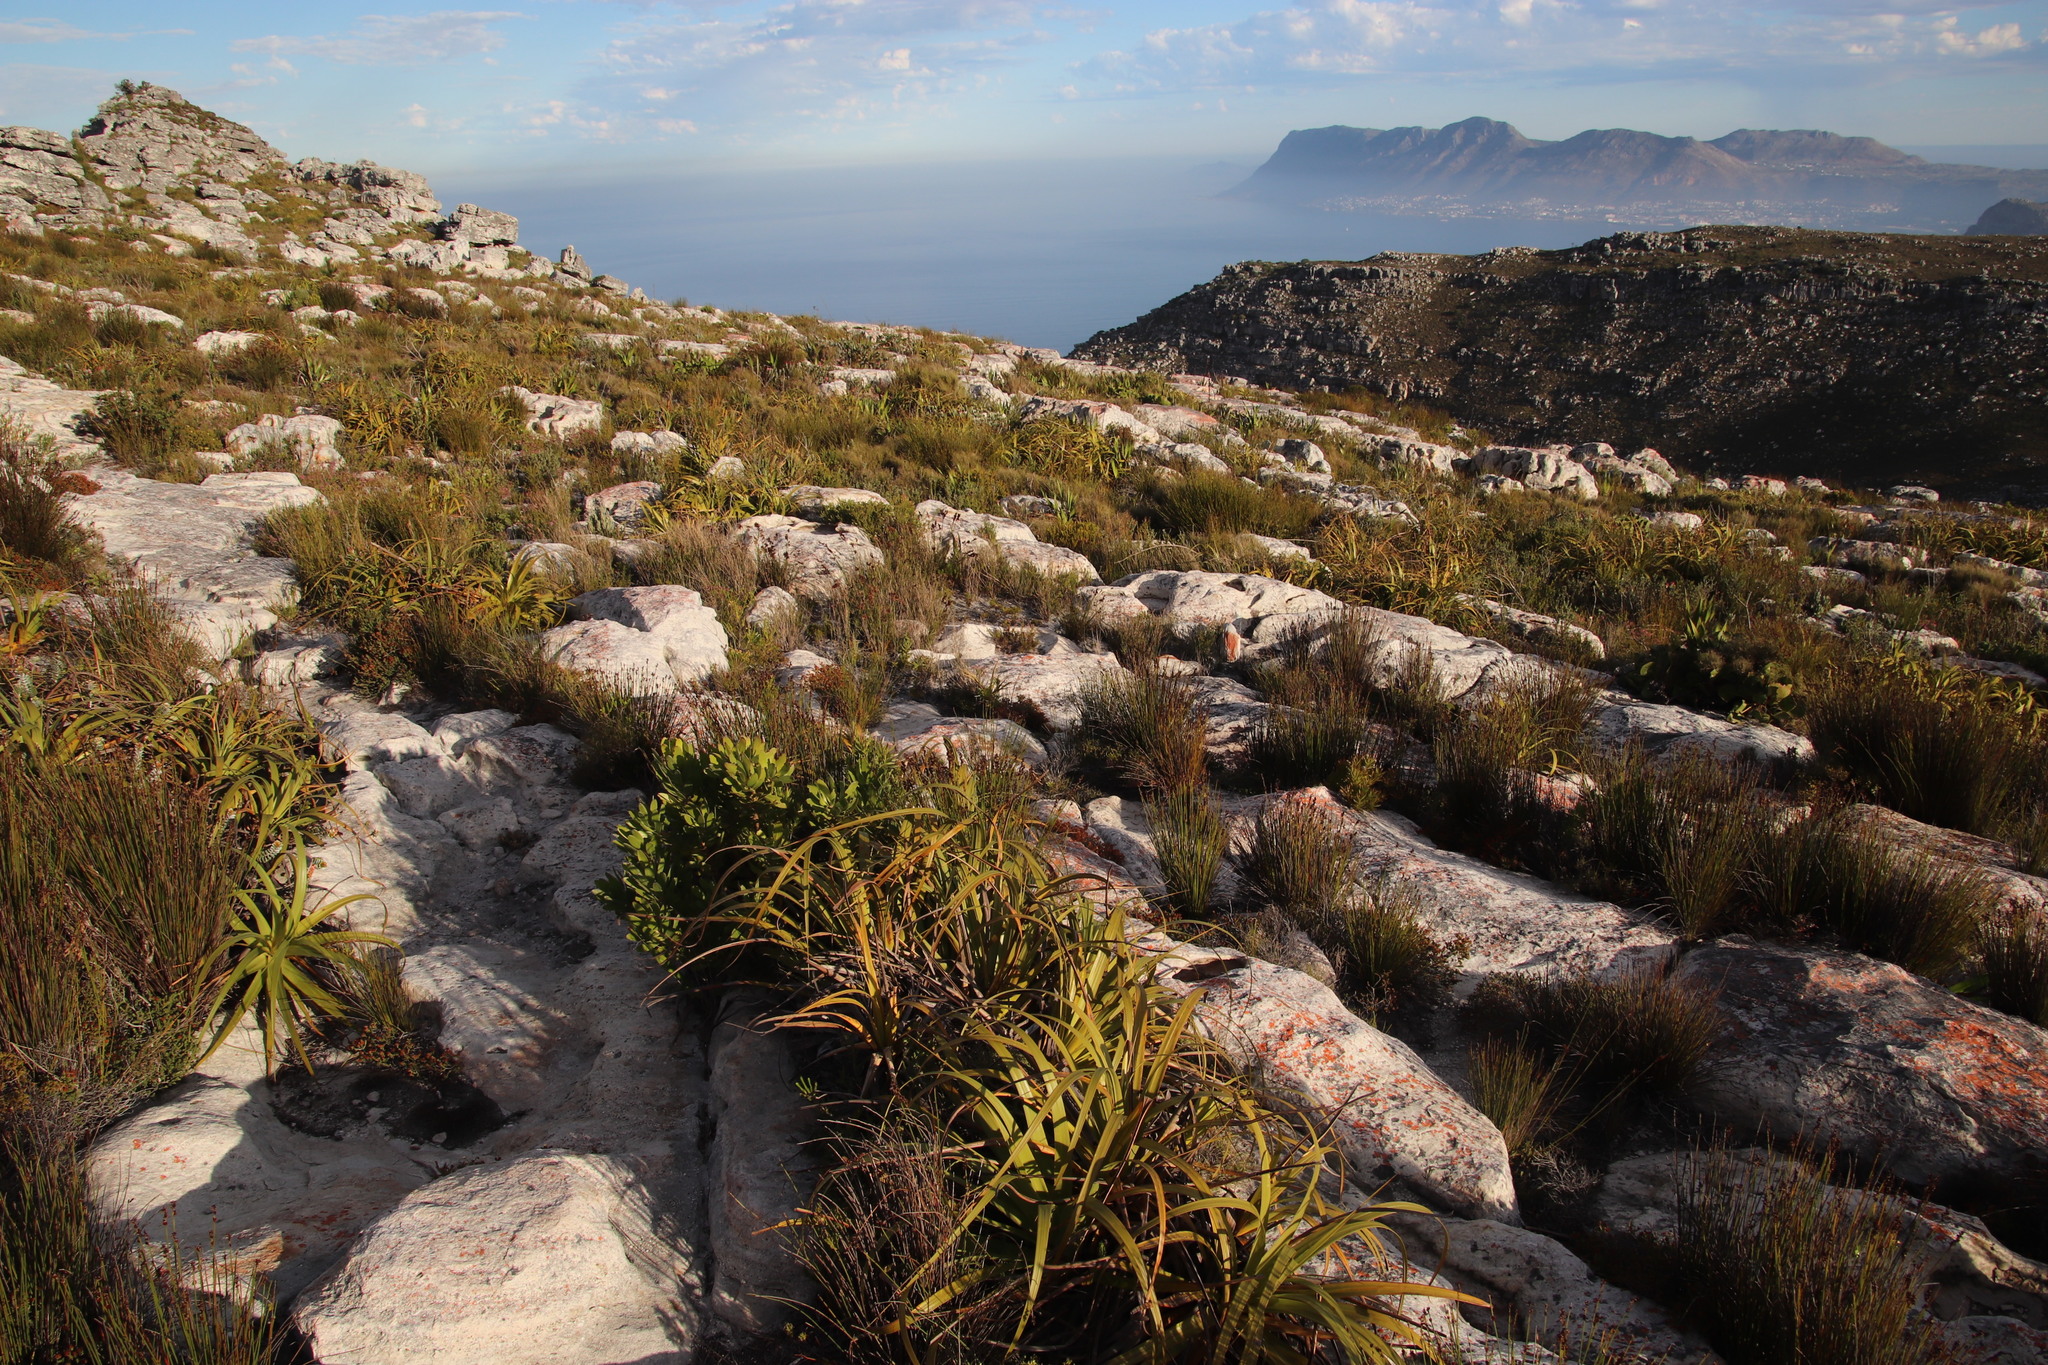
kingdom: Plantae
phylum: Tracheophyta
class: Liliopsida
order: Poales
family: Cyperaceae
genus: Tetraria
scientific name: Tetraria thermalis
